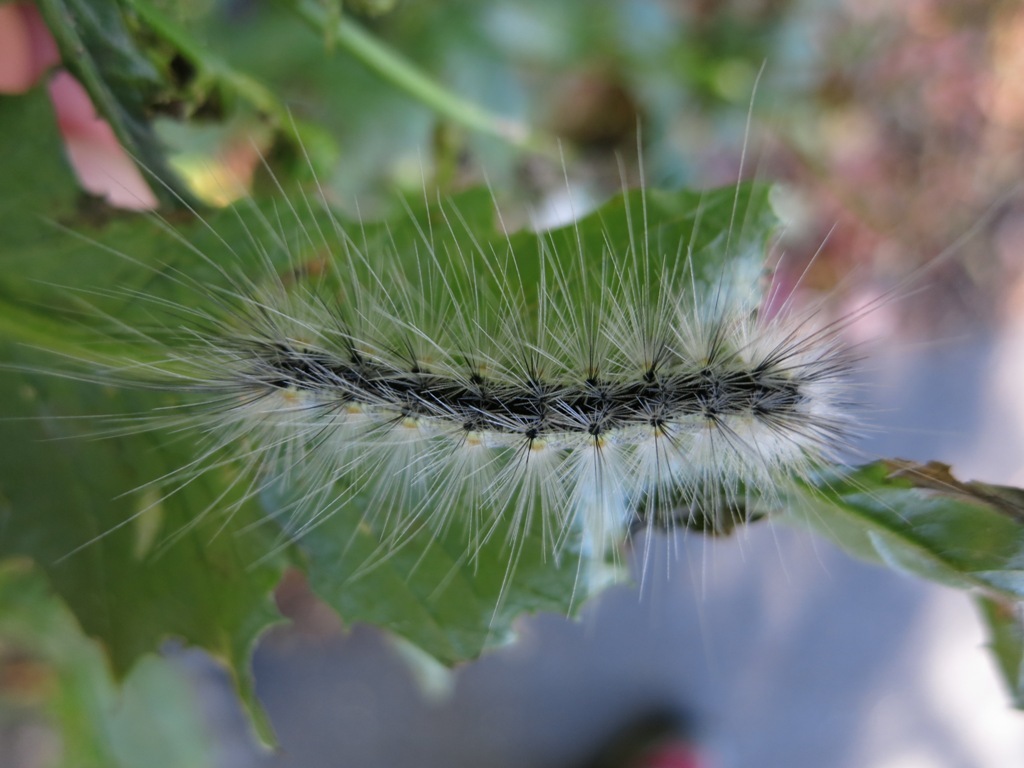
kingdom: Animalia
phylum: Arthropoda
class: Insecta
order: Lepidoptera
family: Erebidae
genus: Hyphantria
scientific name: Hyphantria cunea
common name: American white moth
